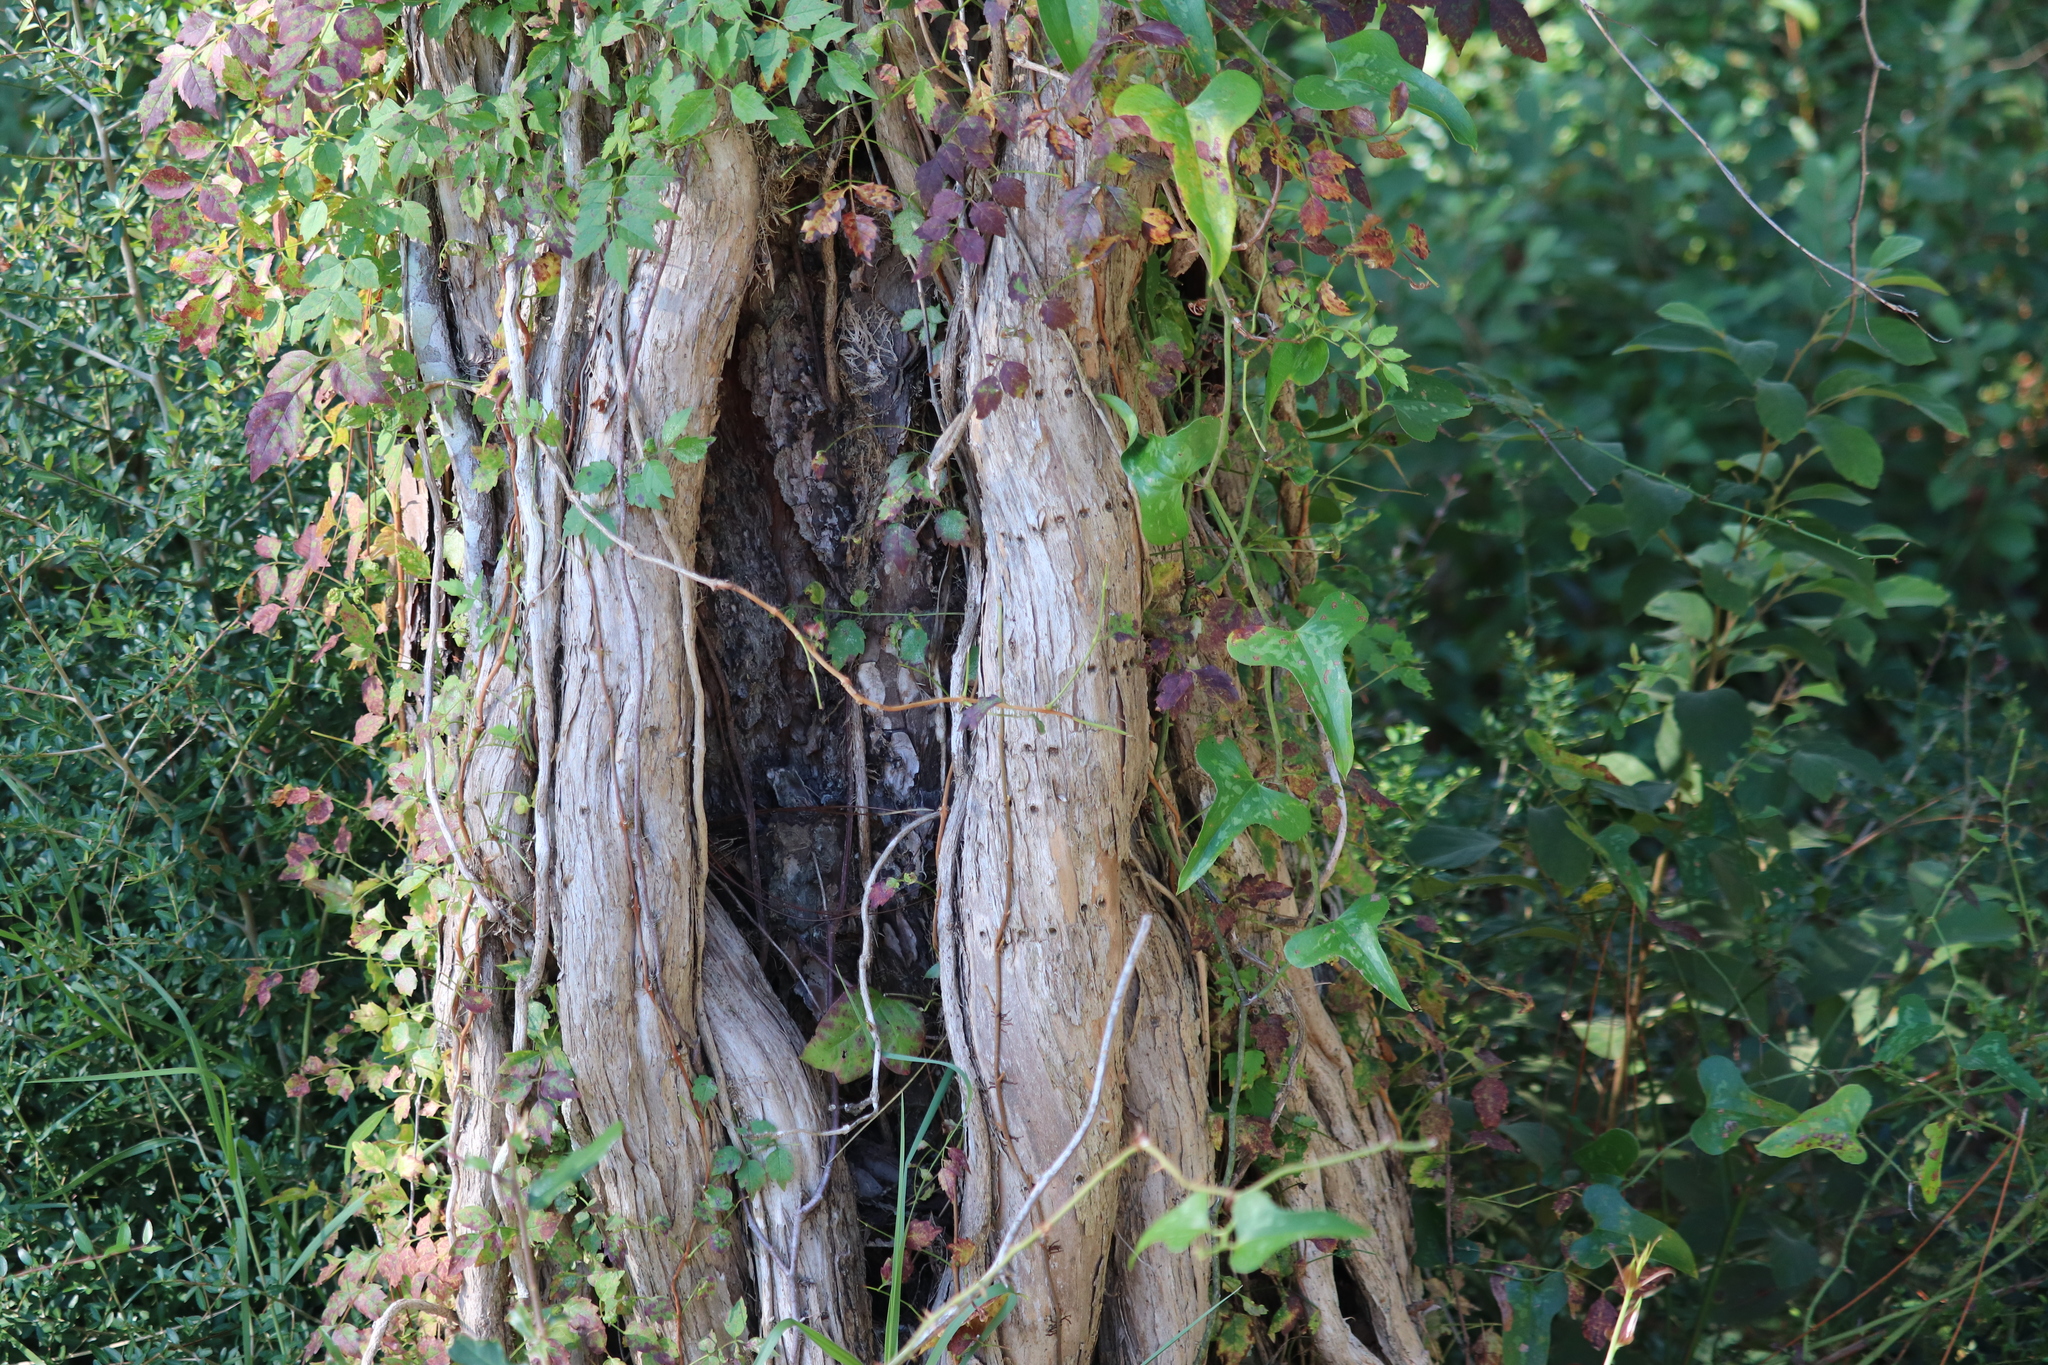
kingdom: Plantae
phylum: Tracheophyta
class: Magnoliopsida
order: Lamiales
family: Bignoniaceae
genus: Campsis
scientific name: Campsis radicans
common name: Trumpet-creeper
